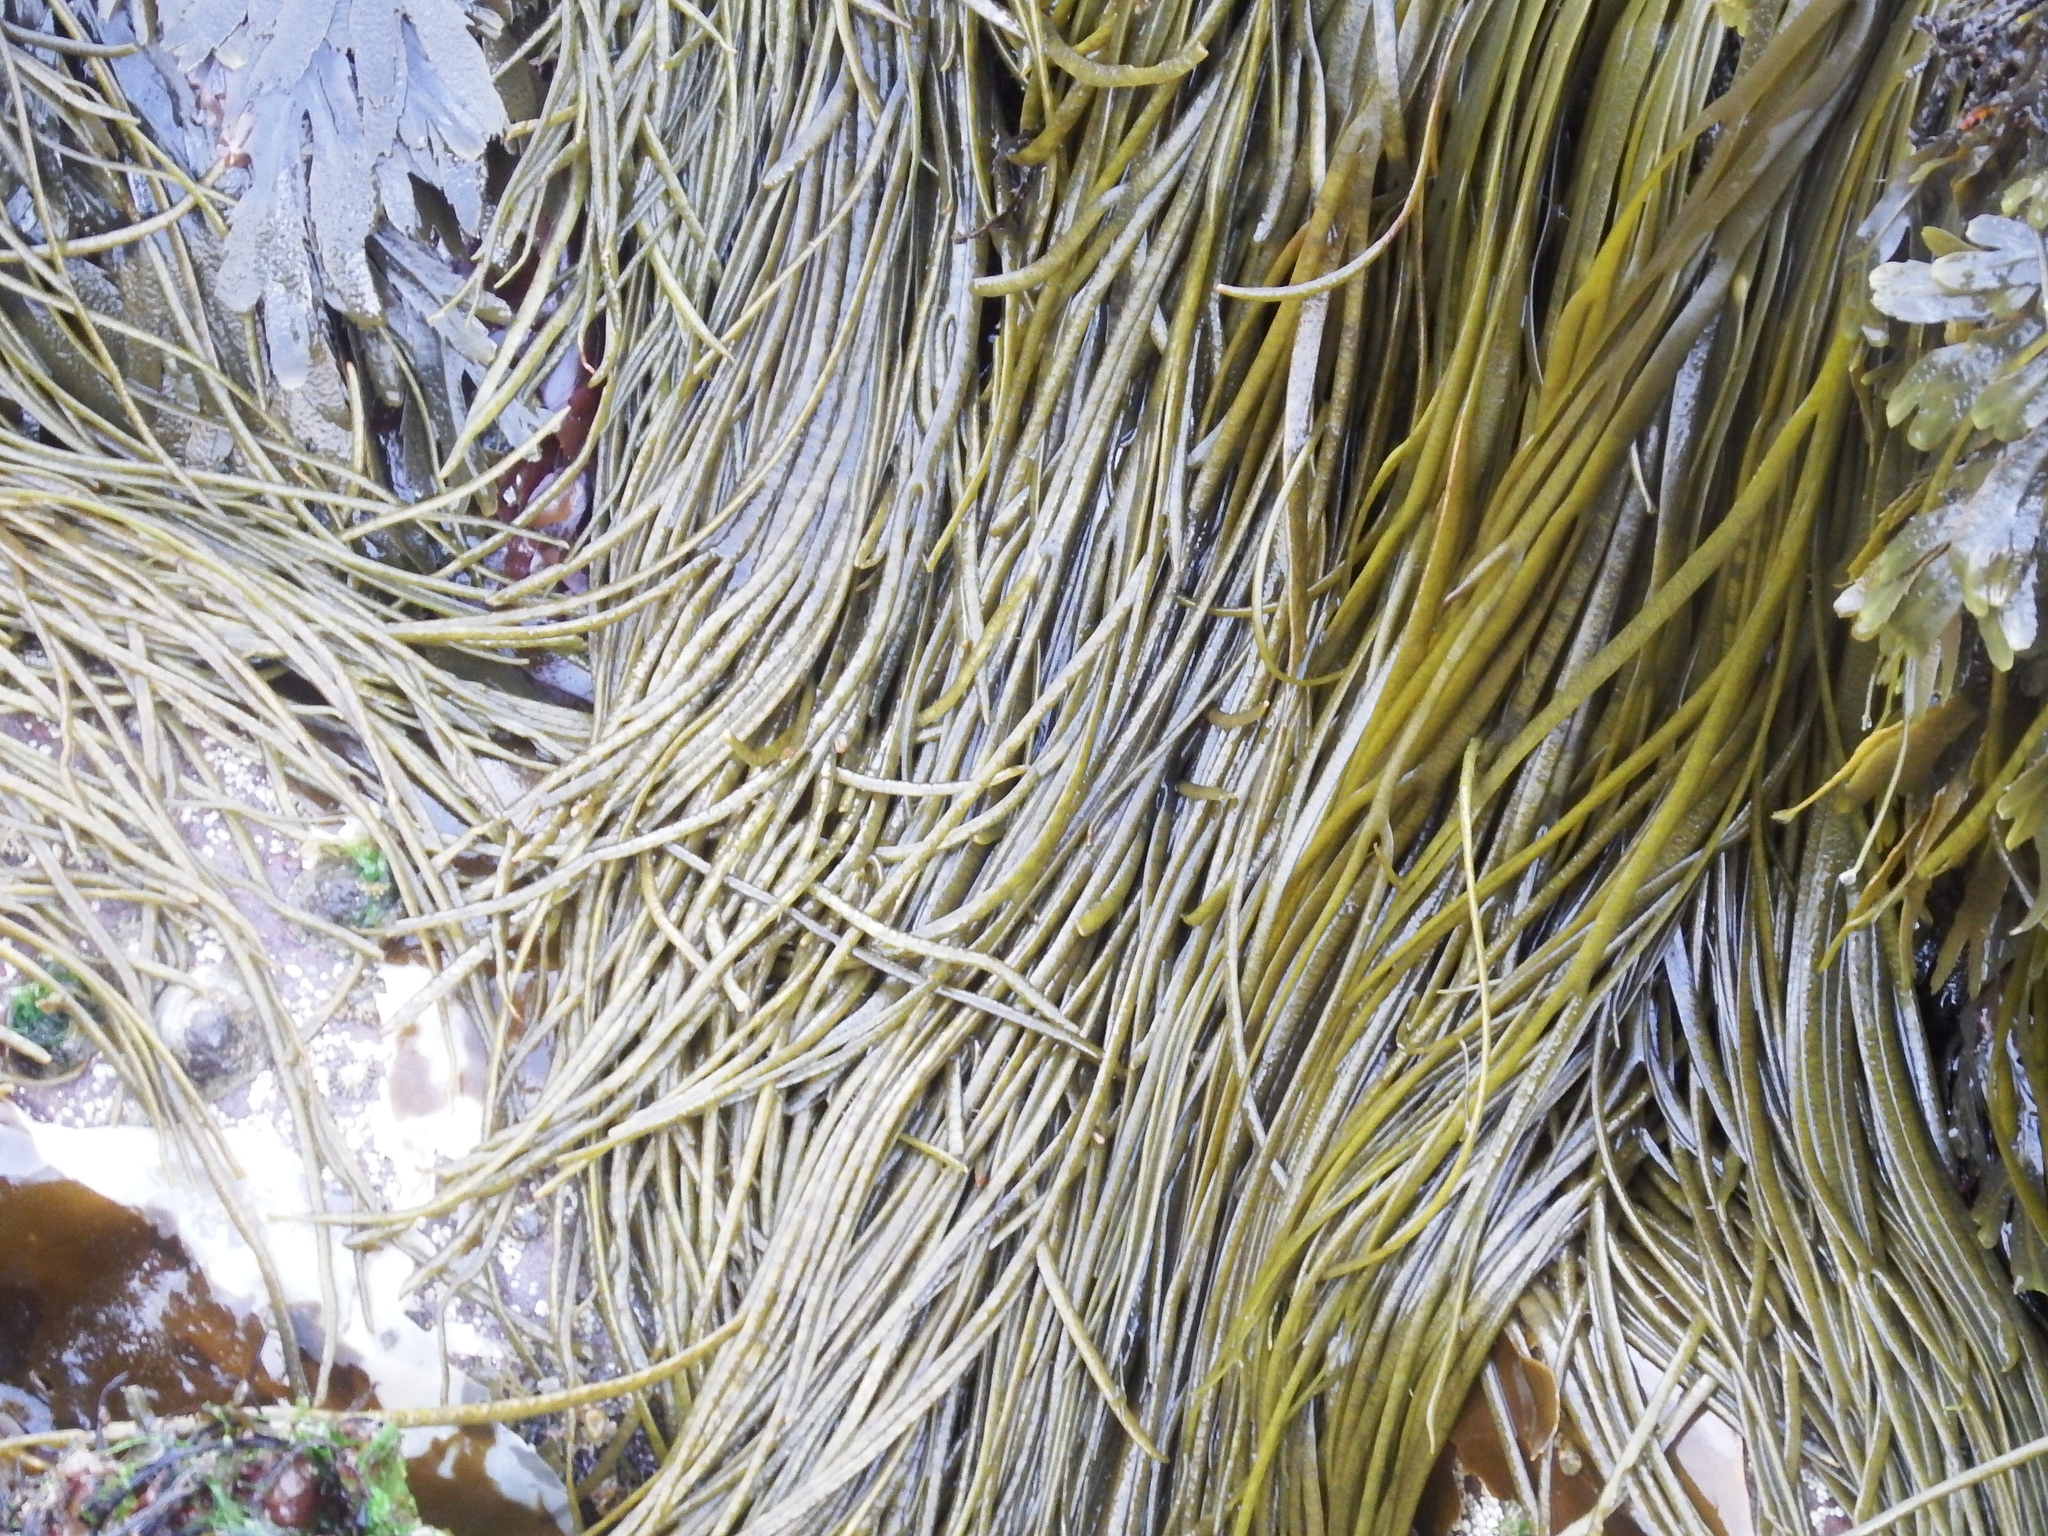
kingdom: Chromista
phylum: Ochrophyta
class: Phaeophyceae
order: Fucales
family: Himanthaliaceae
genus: Himanthalia
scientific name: Himanthalia elongata
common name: Sea-thong
